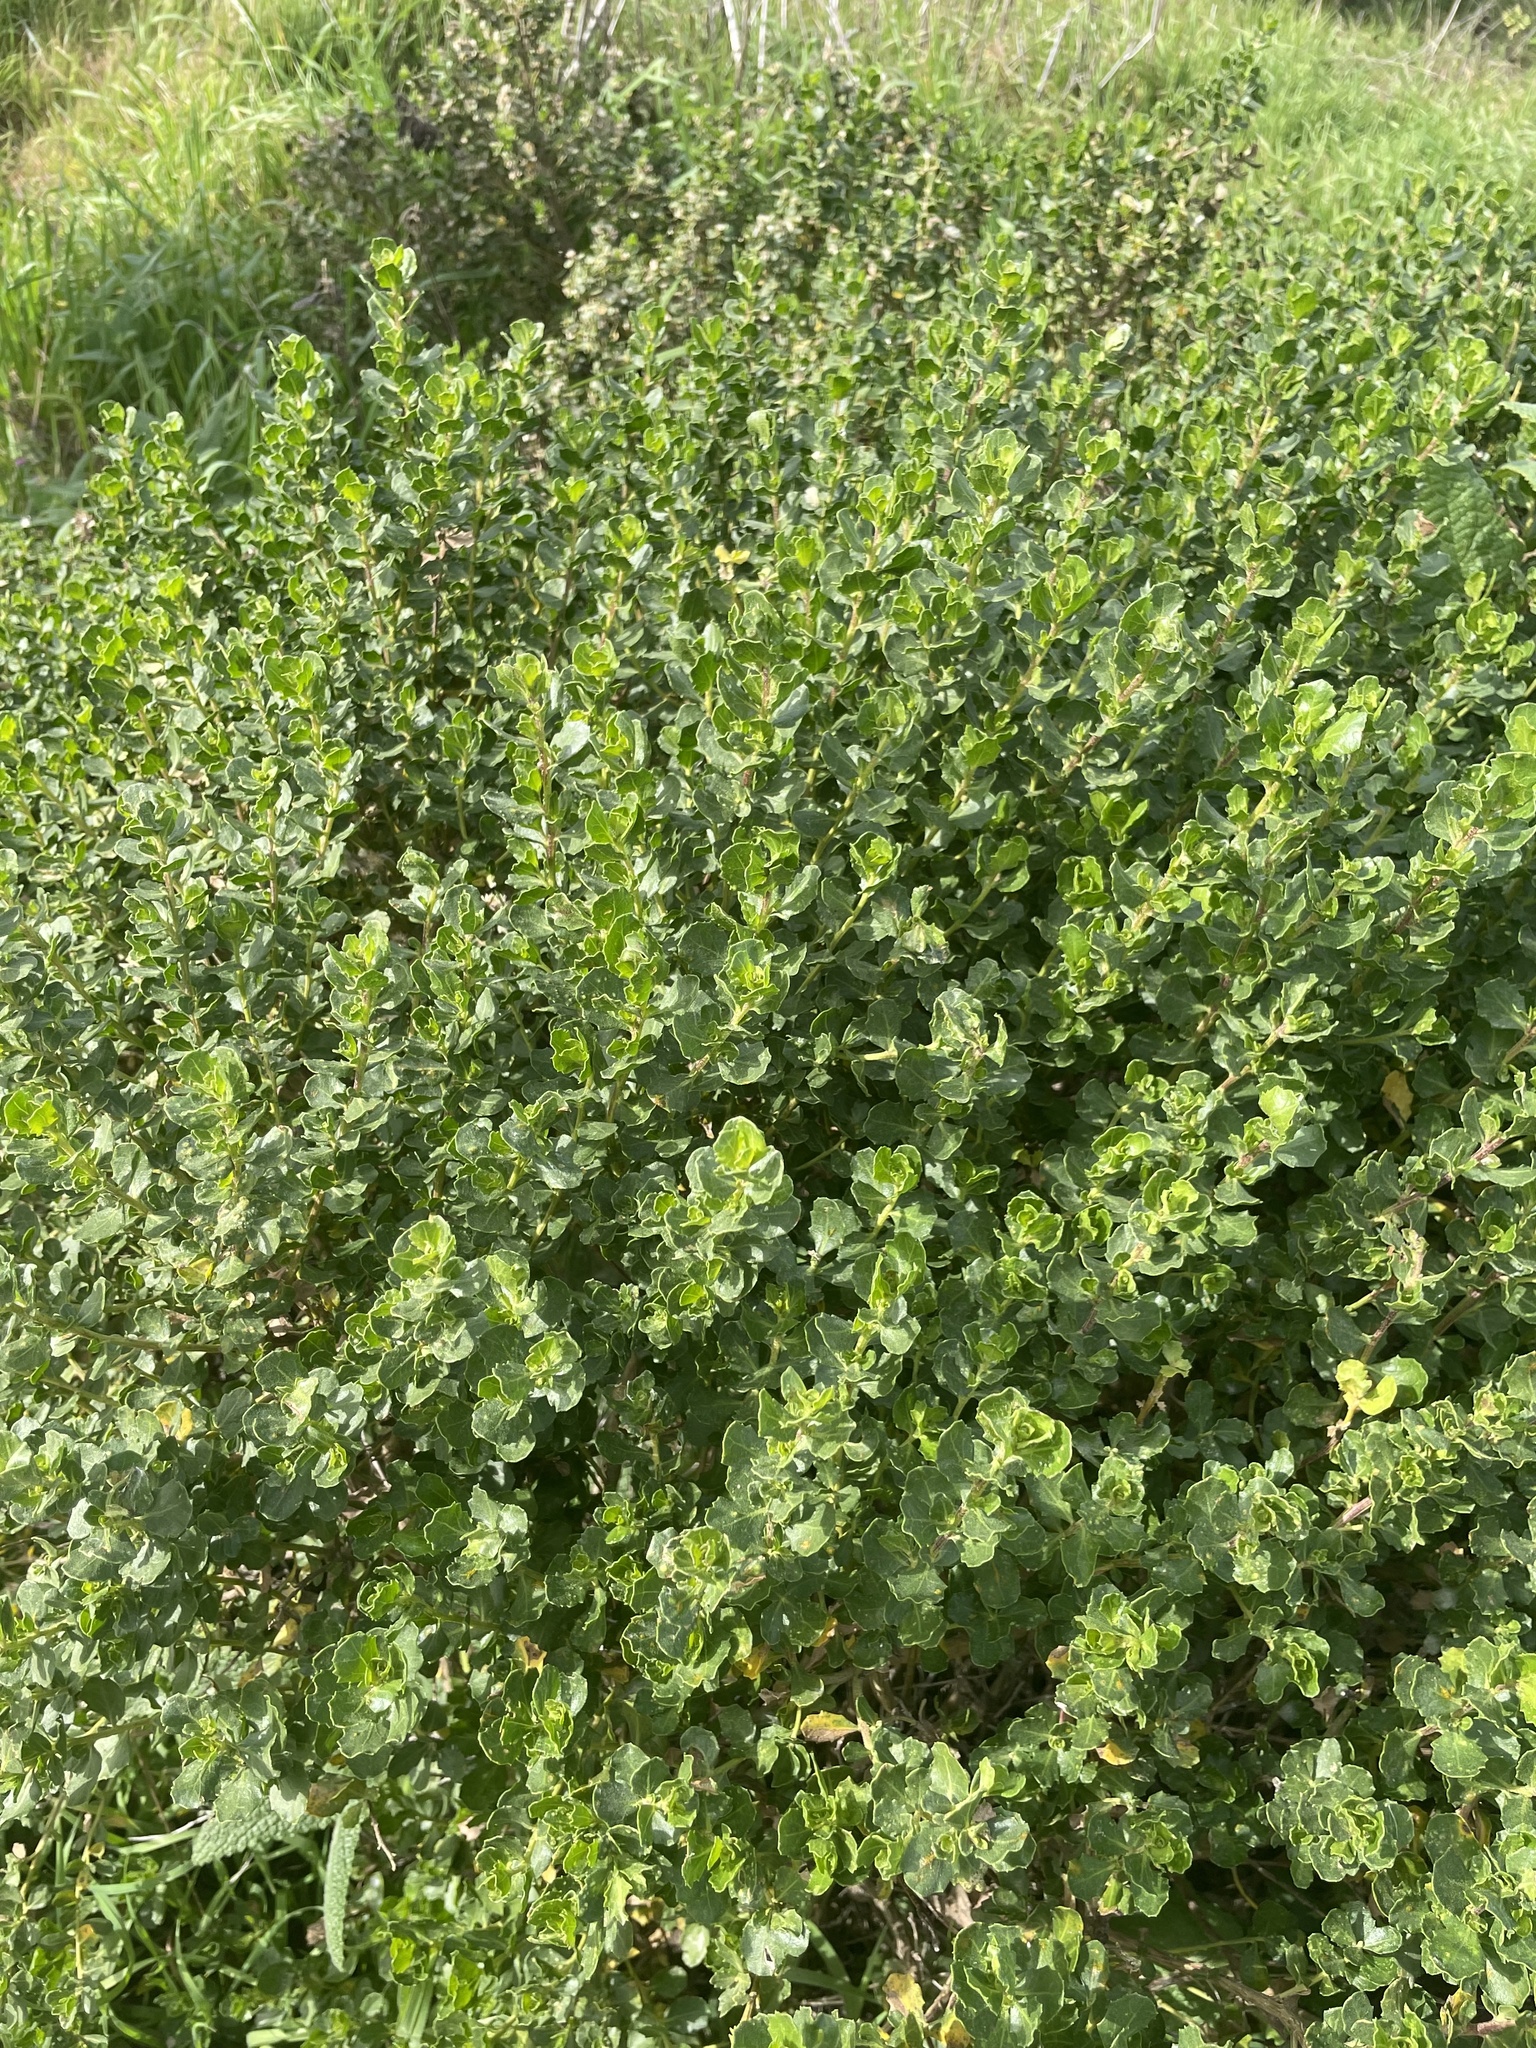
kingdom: Plantae
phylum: Tracheophyta
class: Magnoliopsida
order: Asterales
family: Asteraceae
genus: Baccharis
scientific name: Baccharis pilularis
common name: Coyotebrush
